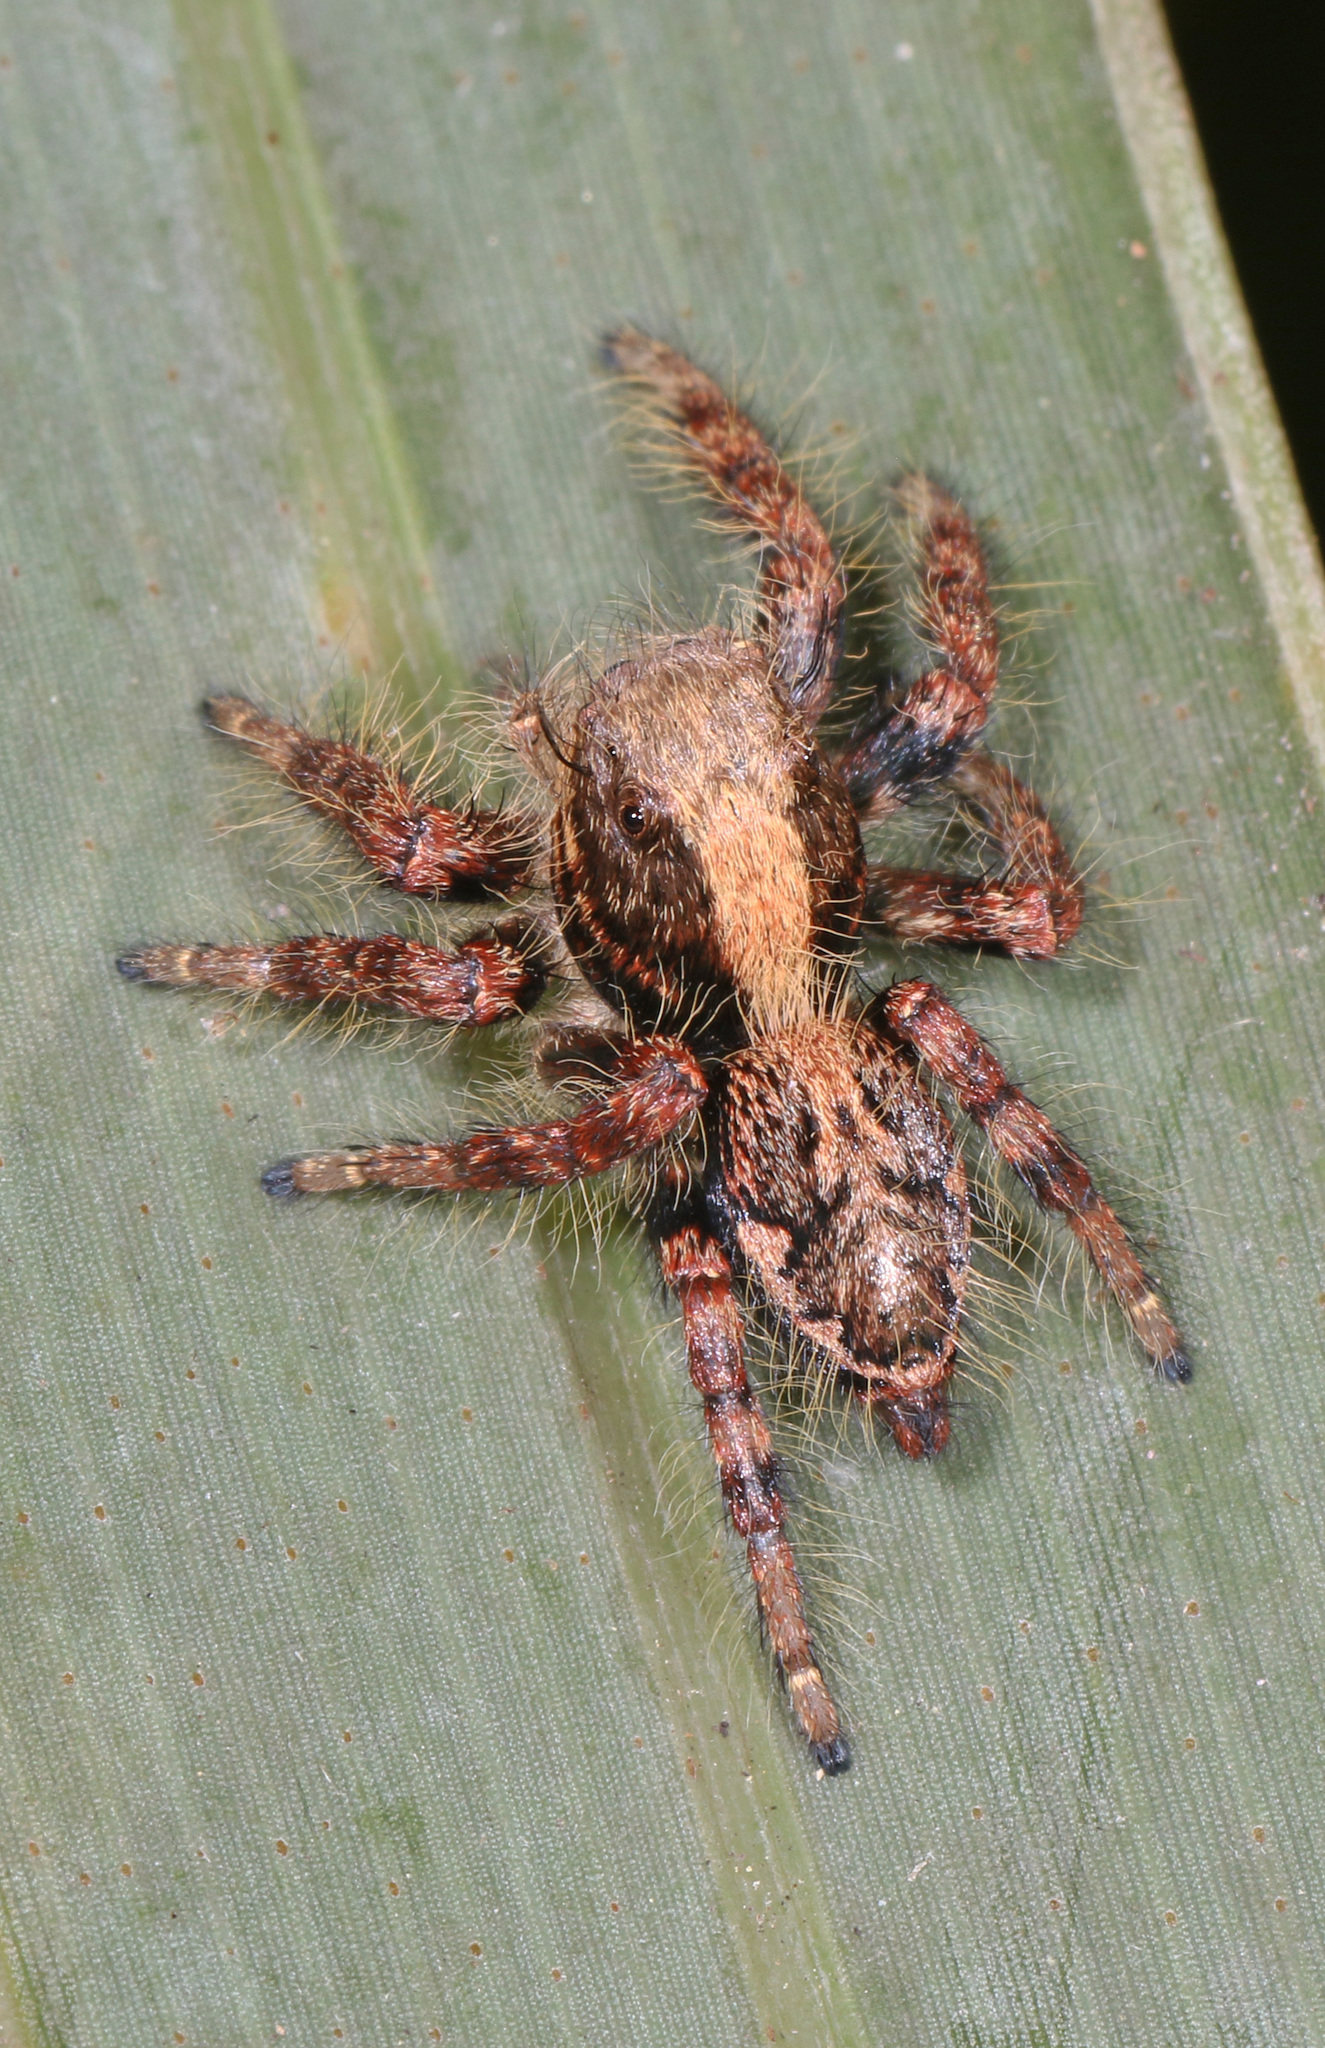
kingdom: Animalia
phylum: Arthropoda
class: Arachnida
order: Araneae
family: Salticidae
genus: Hyllus
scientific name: Hyllus treleaveni
